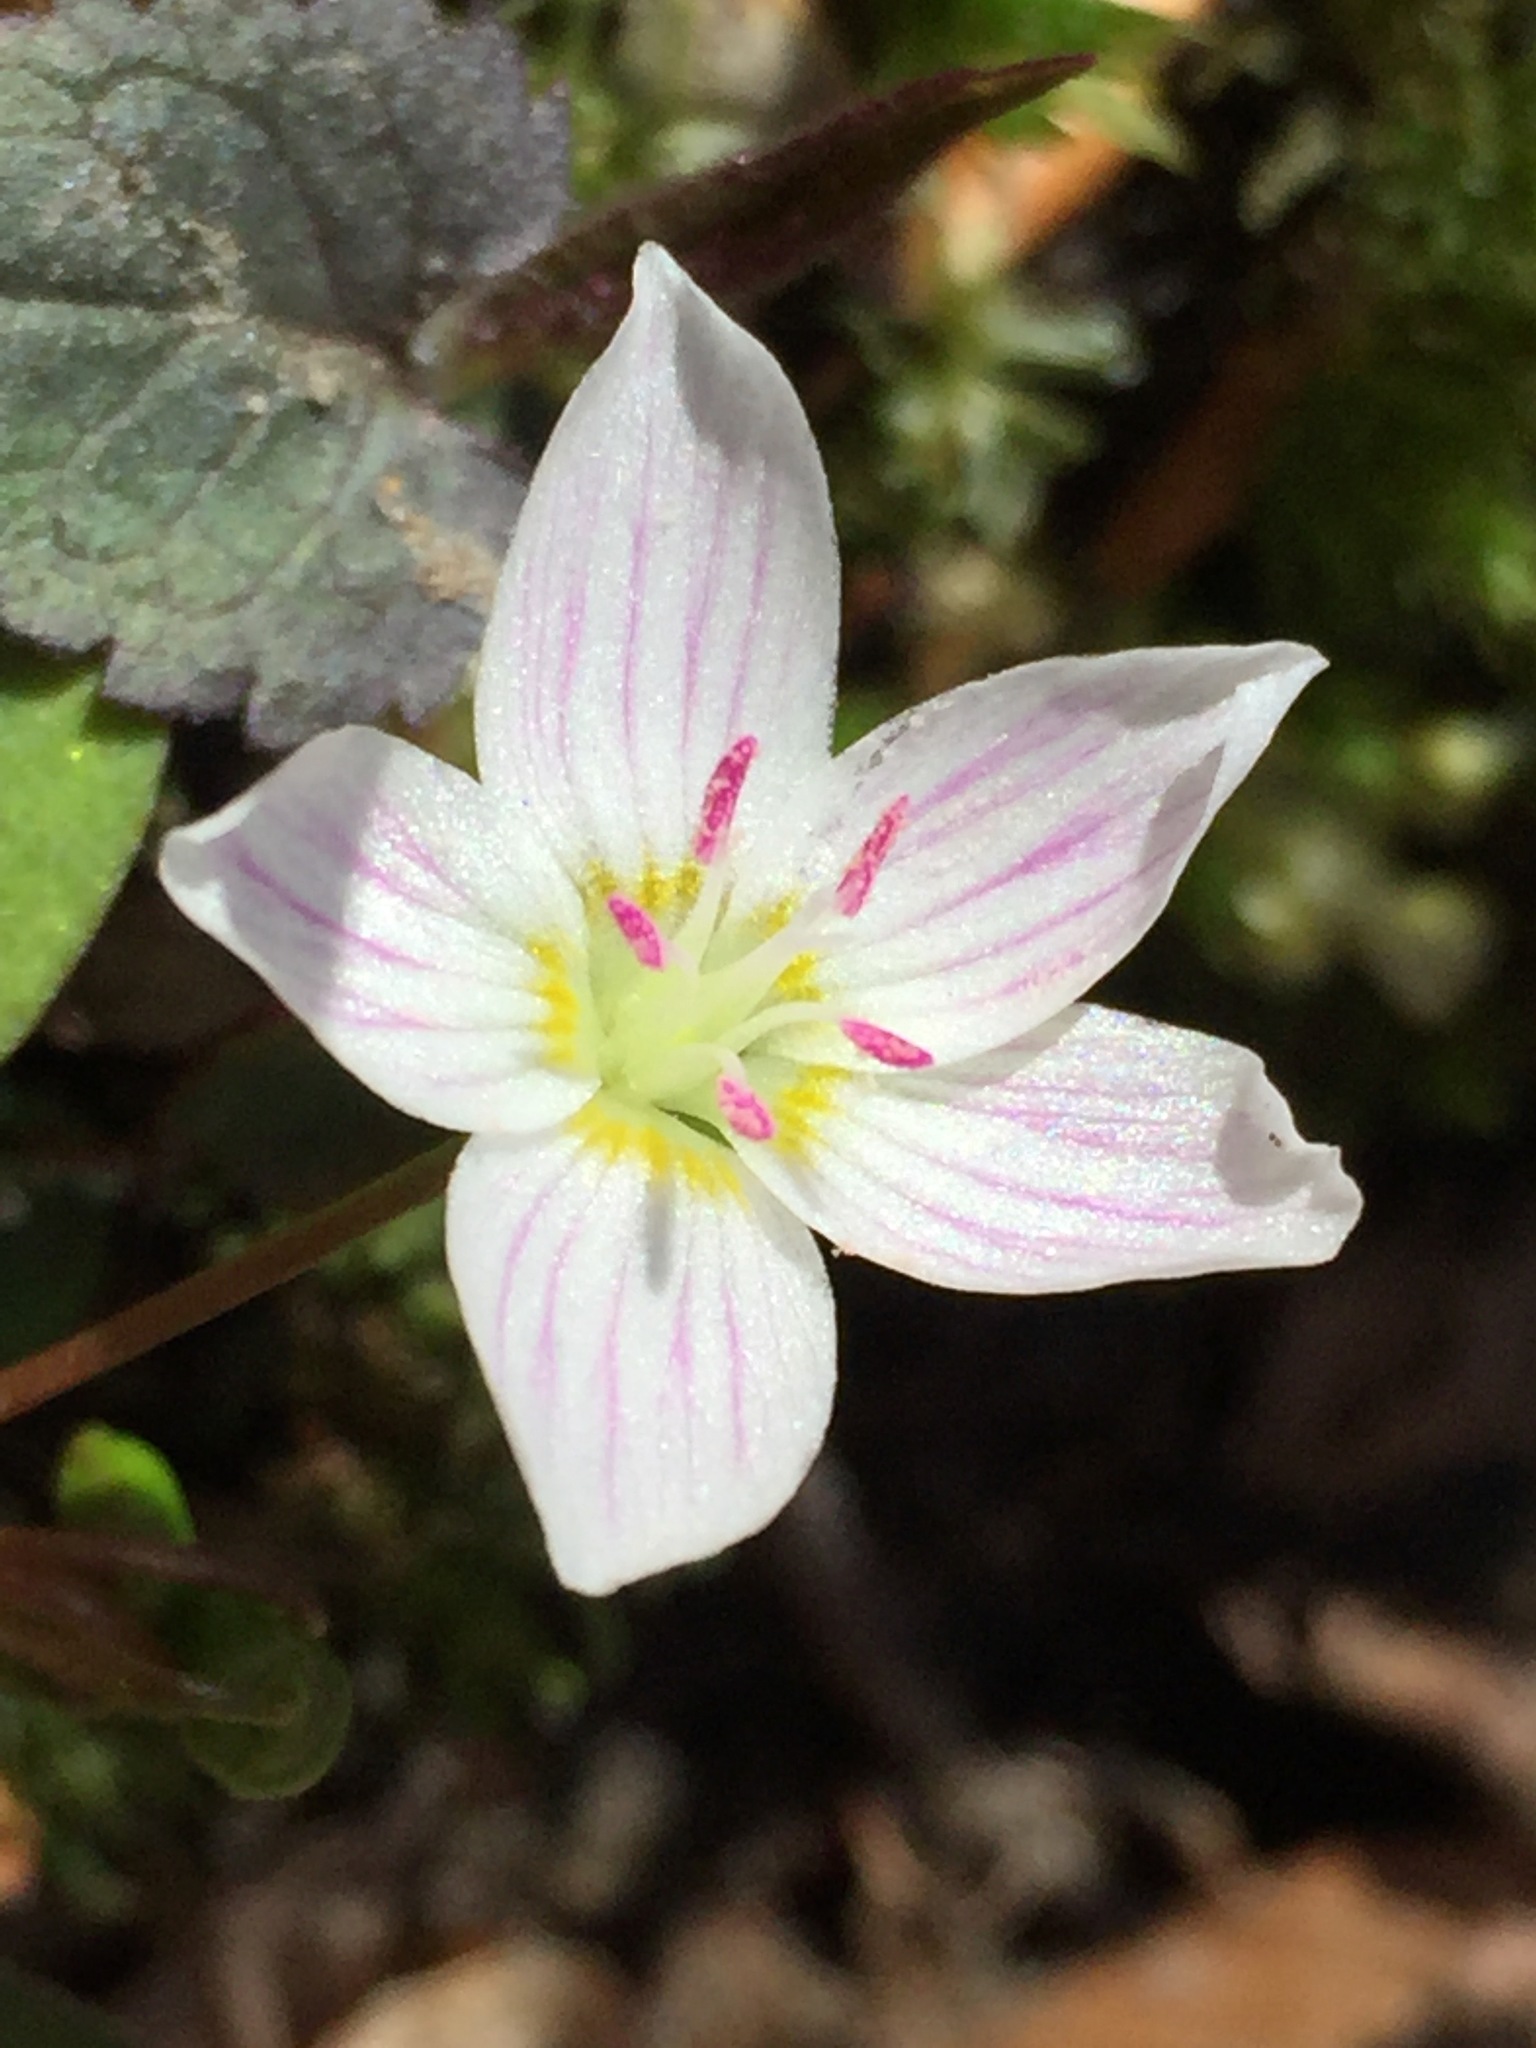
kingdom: Plantae
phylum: Tracheophyta
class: Magnoliopsida
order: Caryophyllales
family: Montiaceae
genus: Claytonia
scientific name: Claytonia caroliniana
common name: Carolina spring beauty
